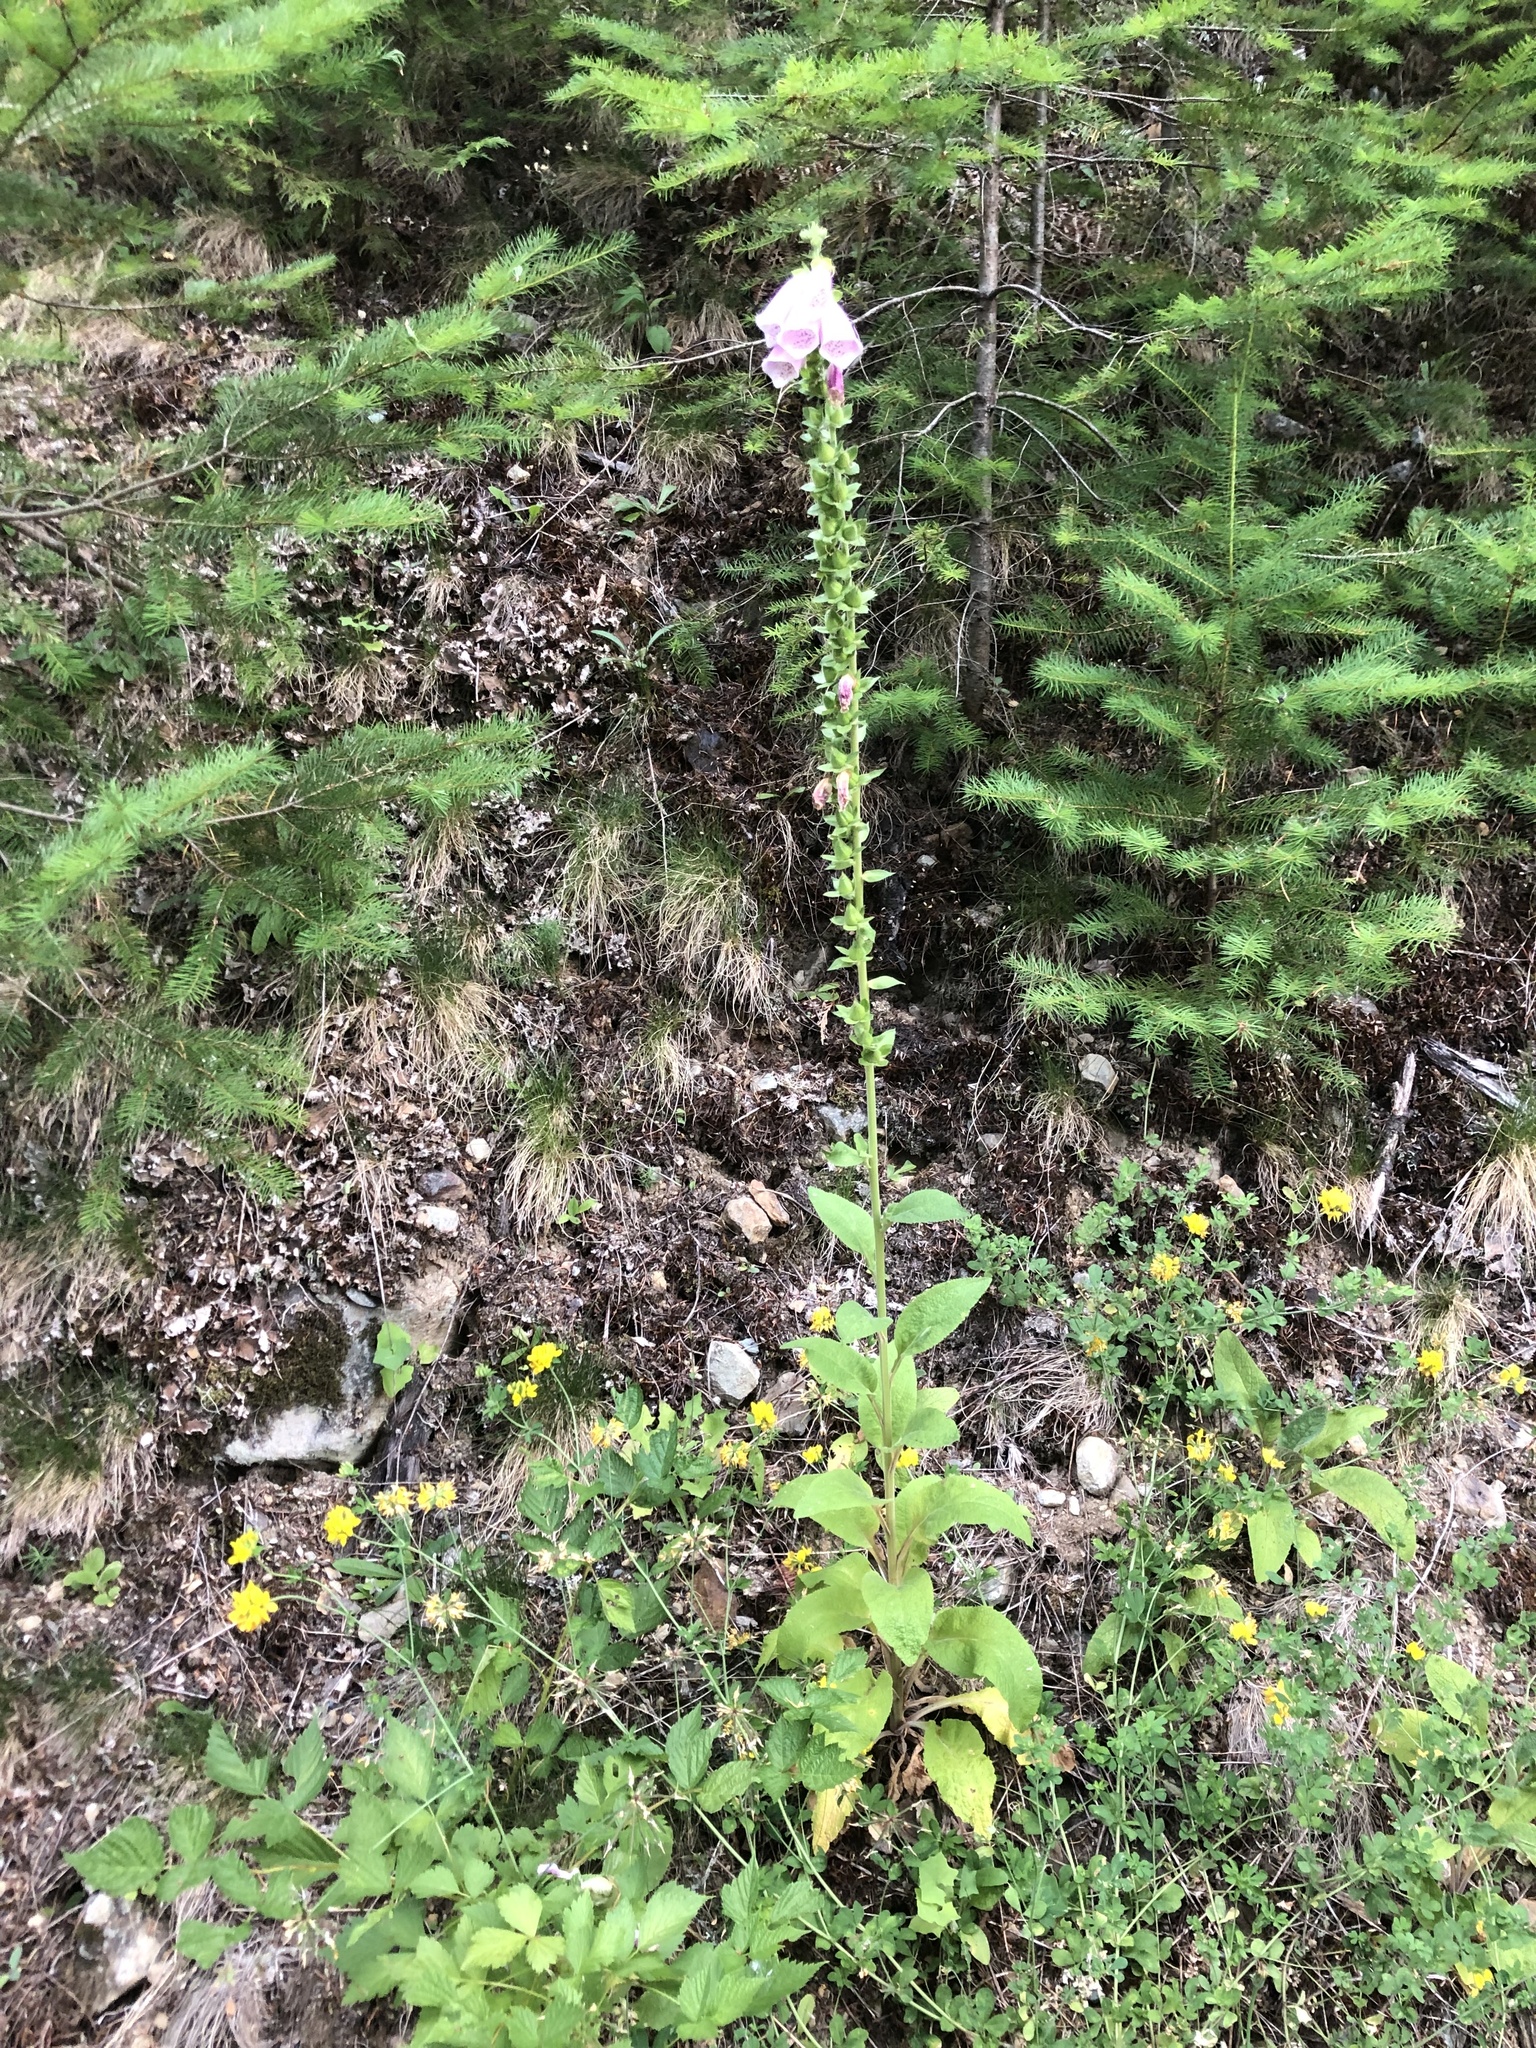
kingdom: Plantae
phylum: Tracheophyta
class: Magnoliopsida
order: Lamiales
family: Plantaginaceae
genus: Digitalis
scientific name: Digitalis purpurea
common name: Foxglove
